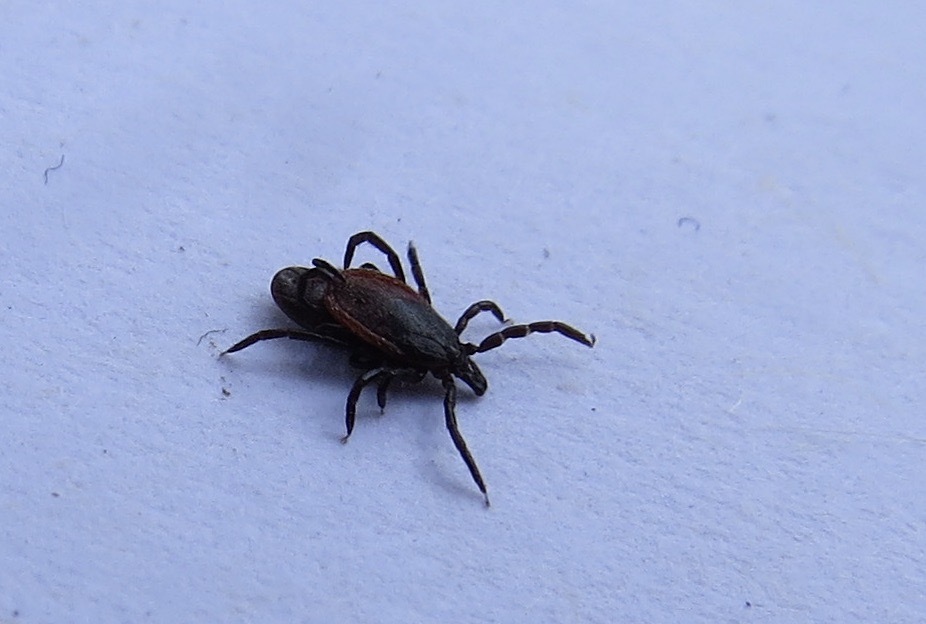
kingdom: Animalia
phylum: Arthropoda
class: Arachnida
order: Ixodida
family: Ixodidae
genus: Ixodes
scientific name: Ixodes pacificus
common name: California black-legged tick
